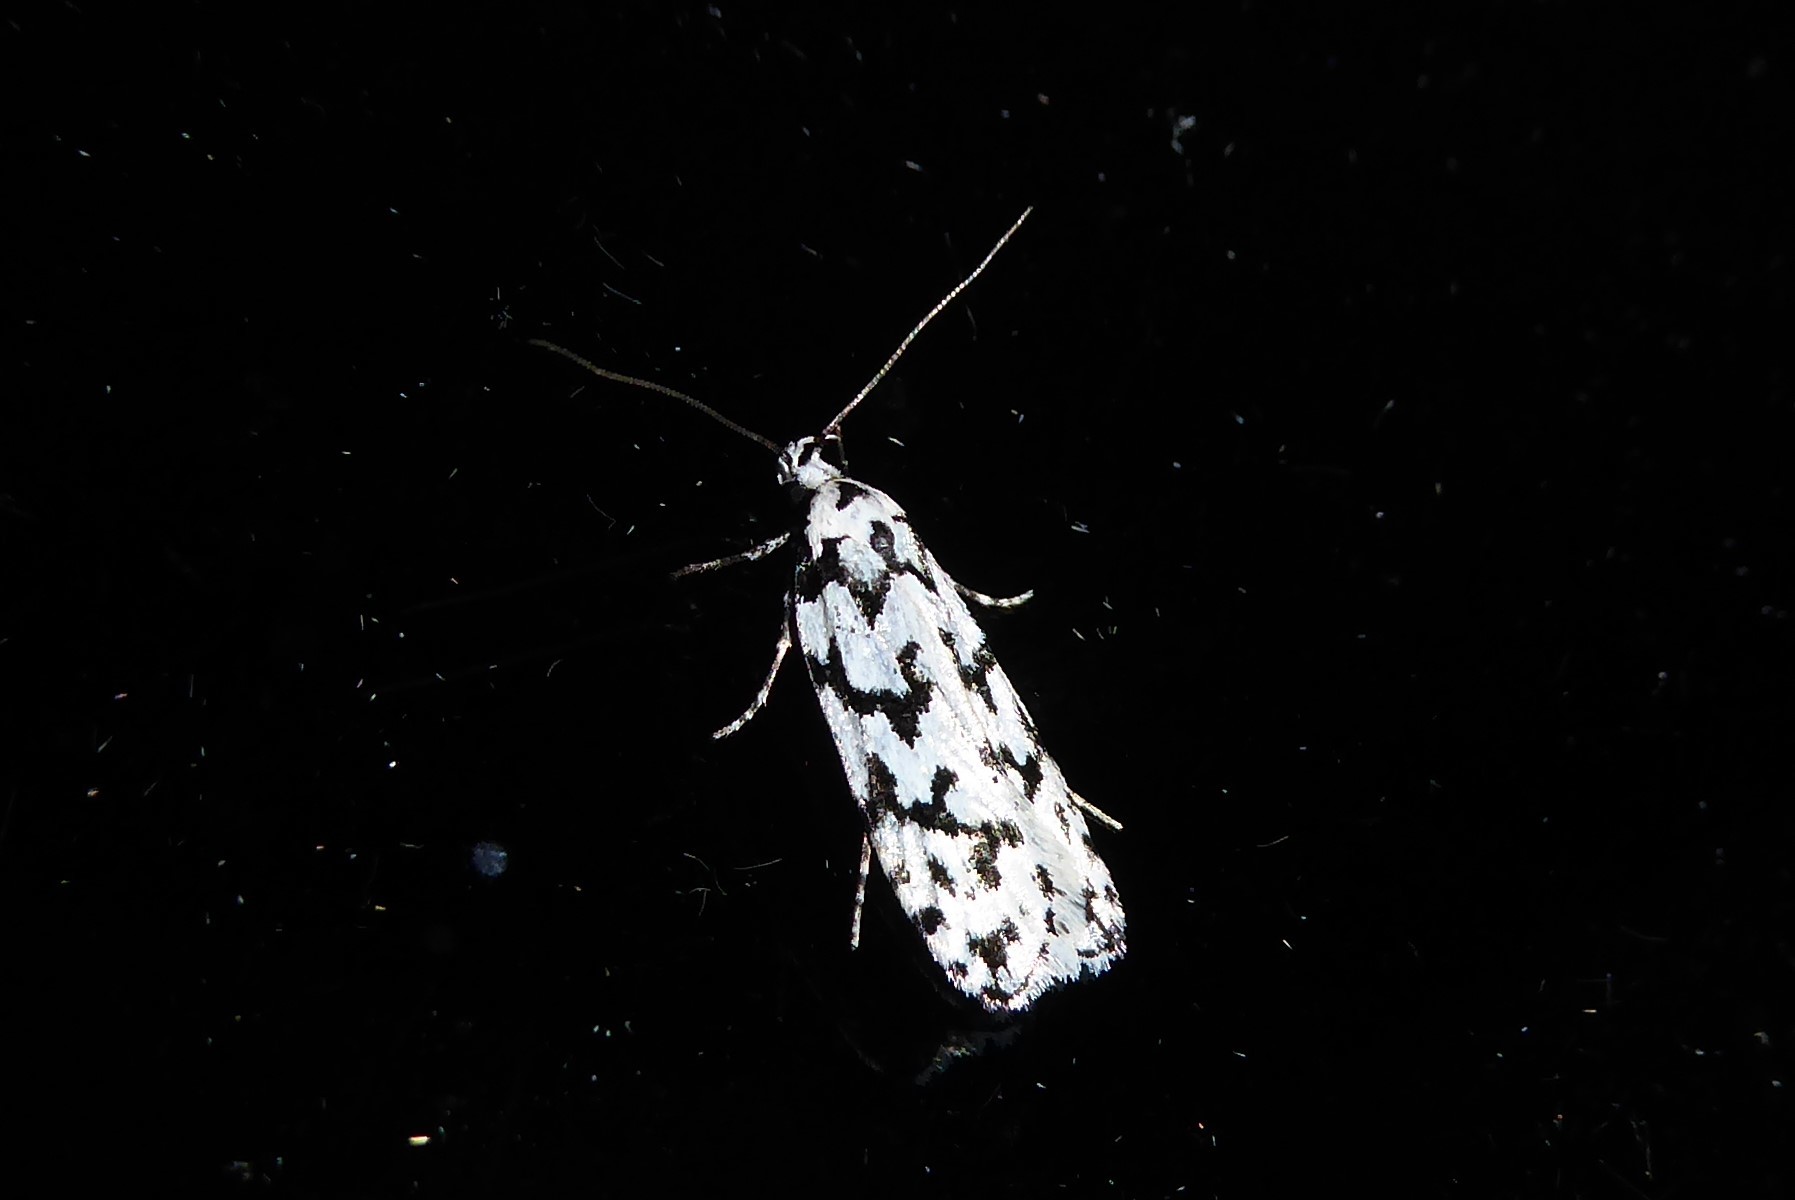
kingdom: Animalia
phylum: Arthropoda
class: Insecta
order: Lepidoptera
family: Oecophoridae
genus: Izatha
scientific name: Izatha katadiktya
